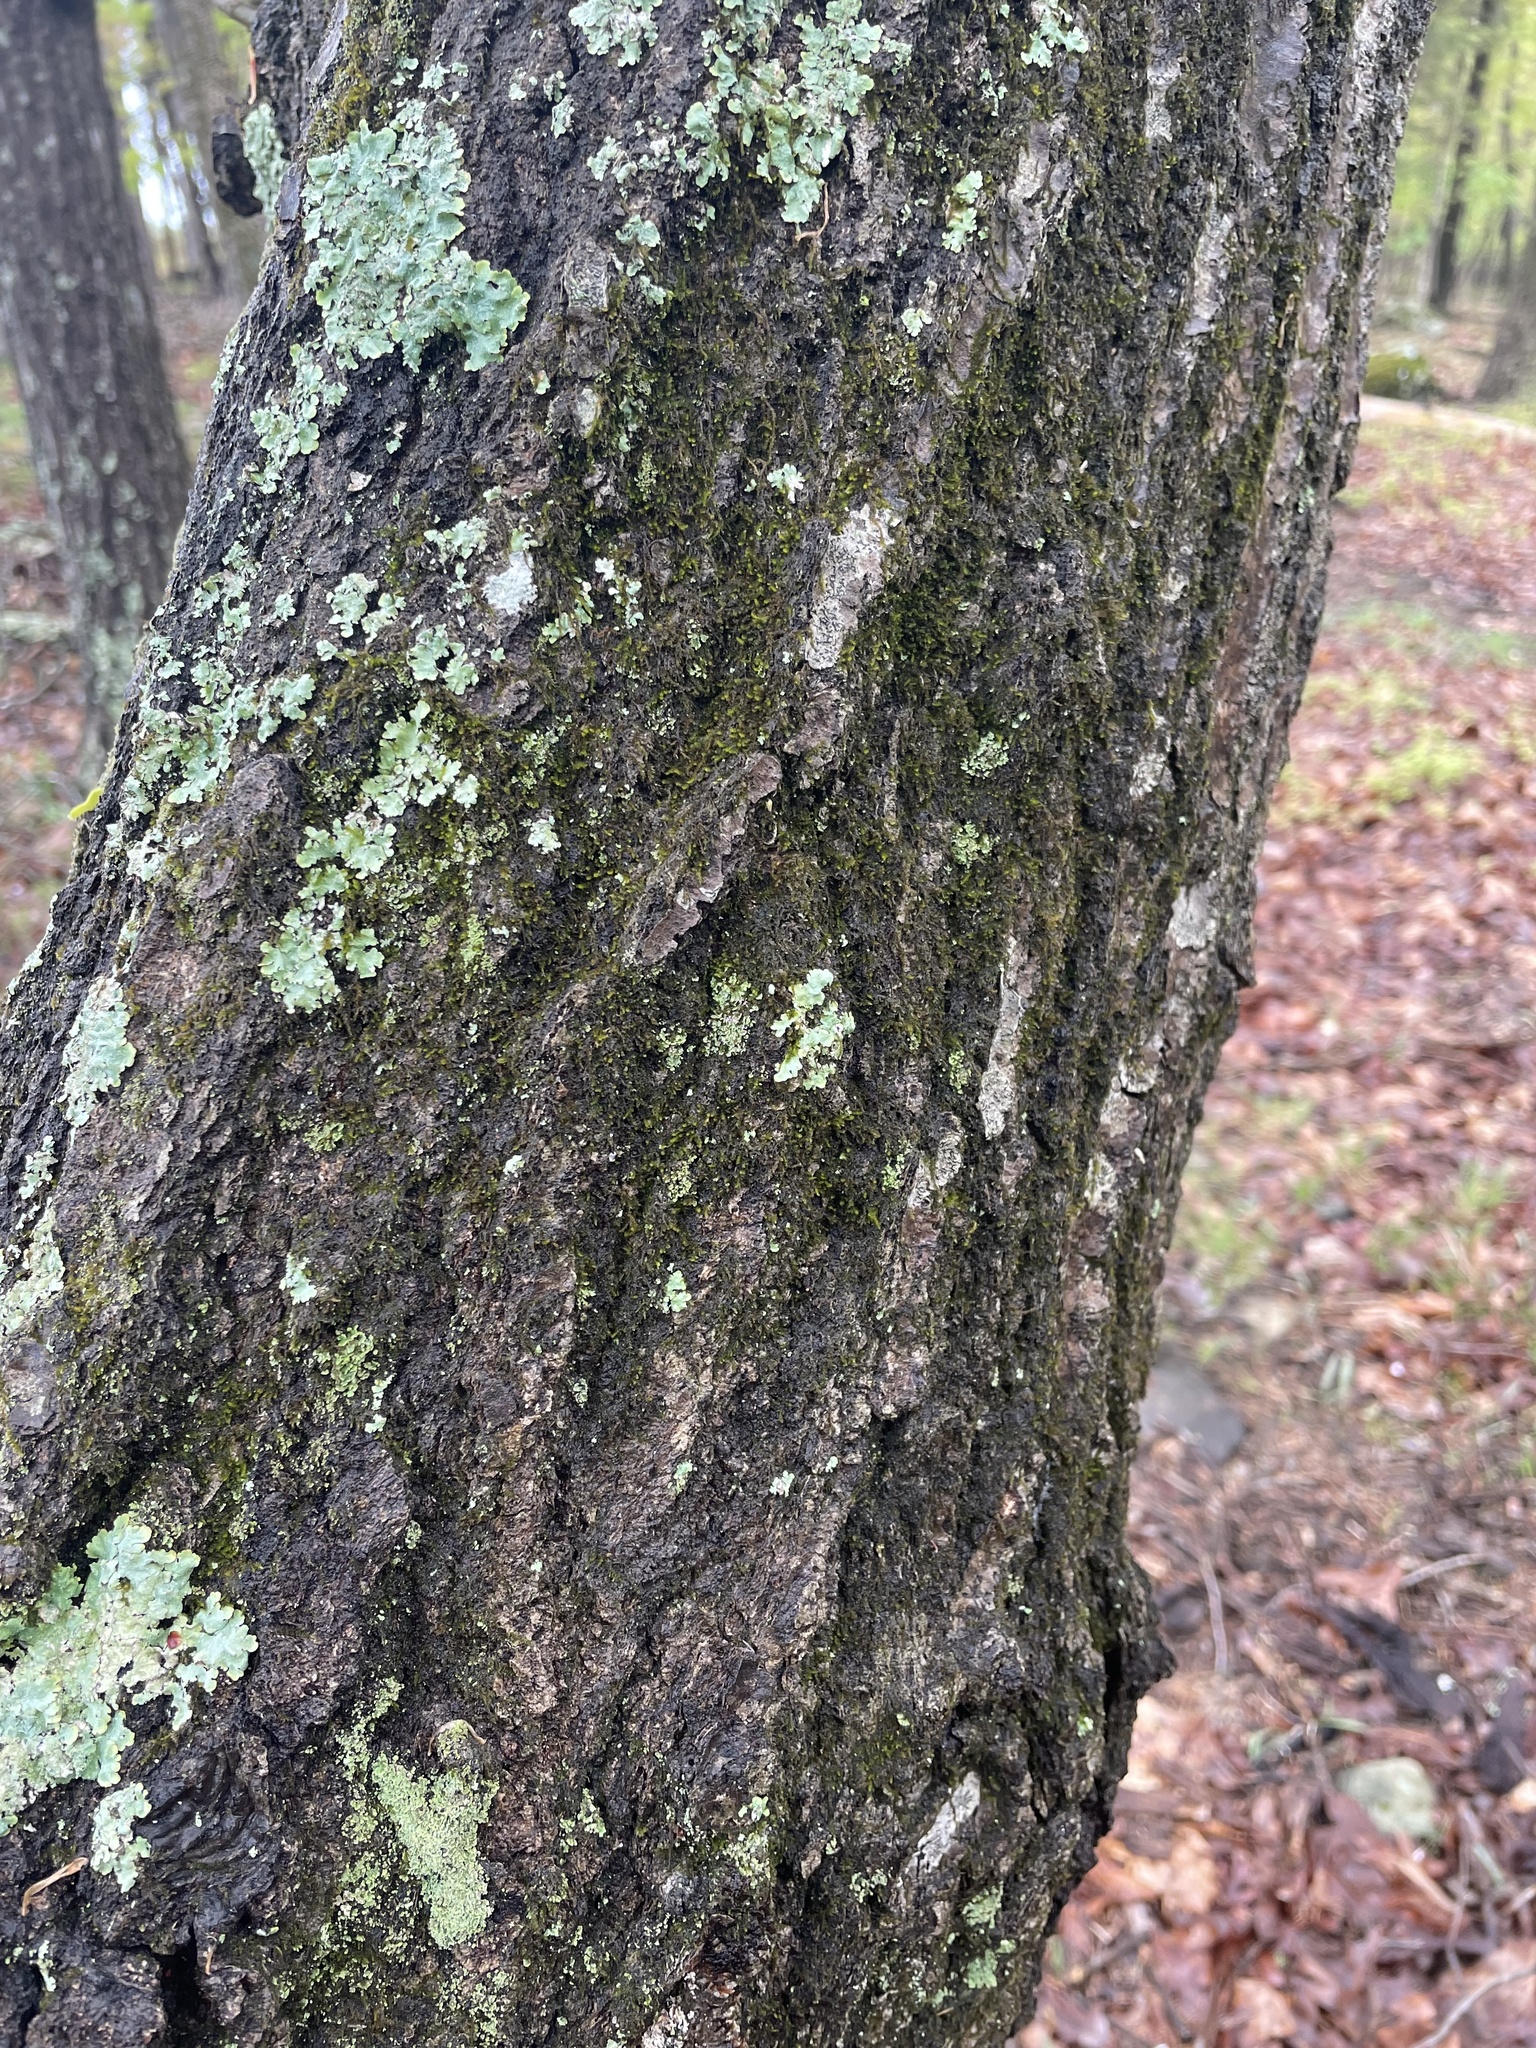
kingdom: Plantae
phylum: Tracheophyta
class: Magnoliopsida
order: Fagales
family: Fagaceae
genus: Quercus
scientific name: Quercus rubra
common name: Red oak
